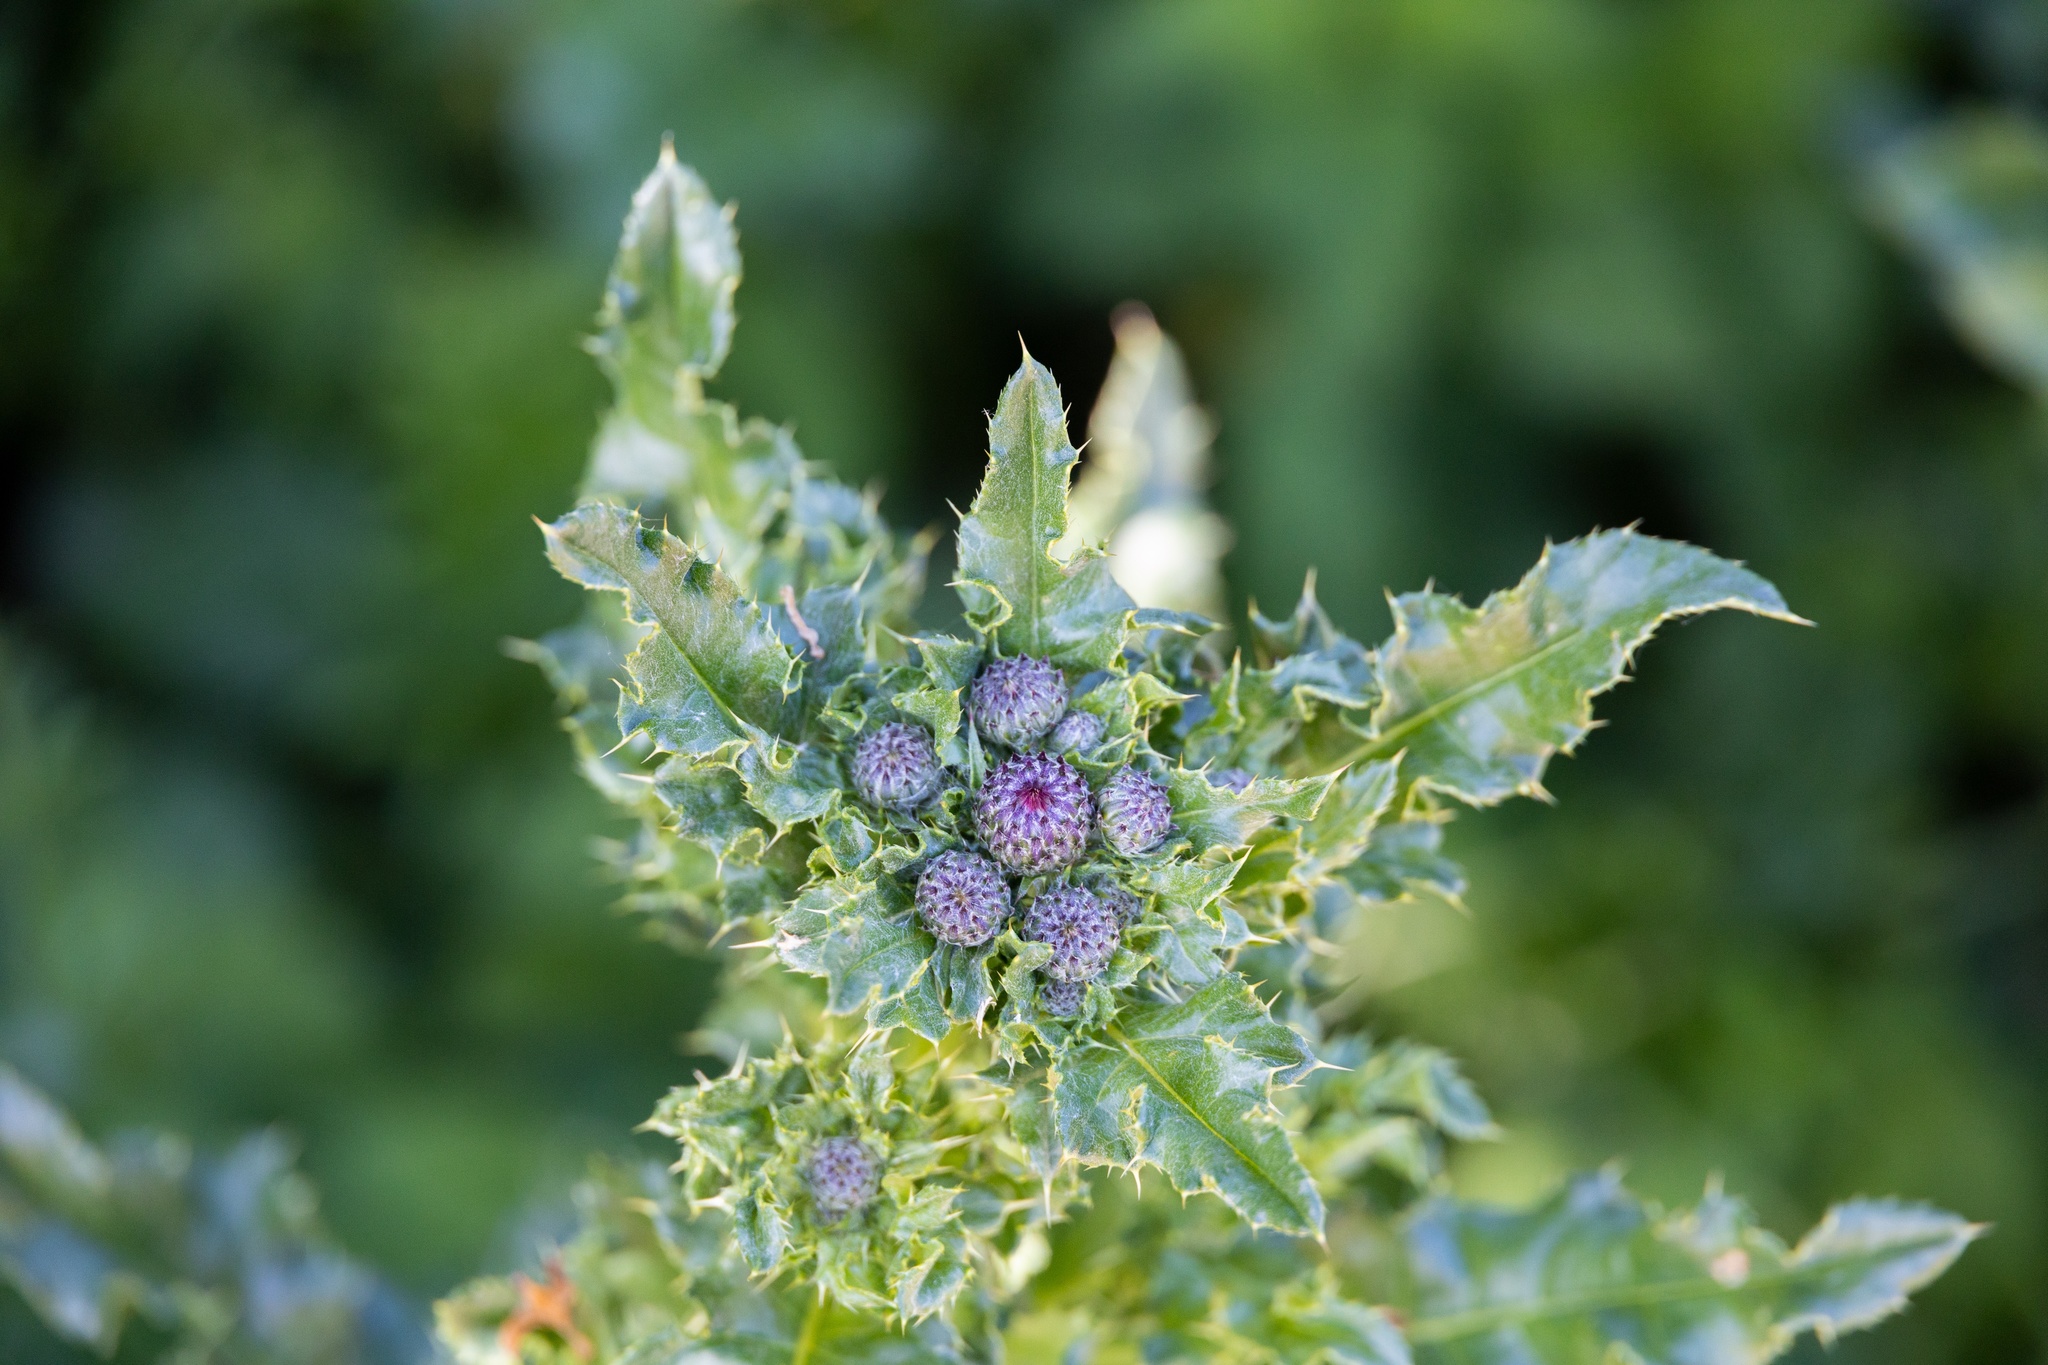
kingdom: Plantae
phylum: Tracheophyta
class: Magnoliopsida
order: Asterales
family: Asteraceae
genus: Cirsium
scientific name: Cirsium arvense
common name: Creeping thistle
